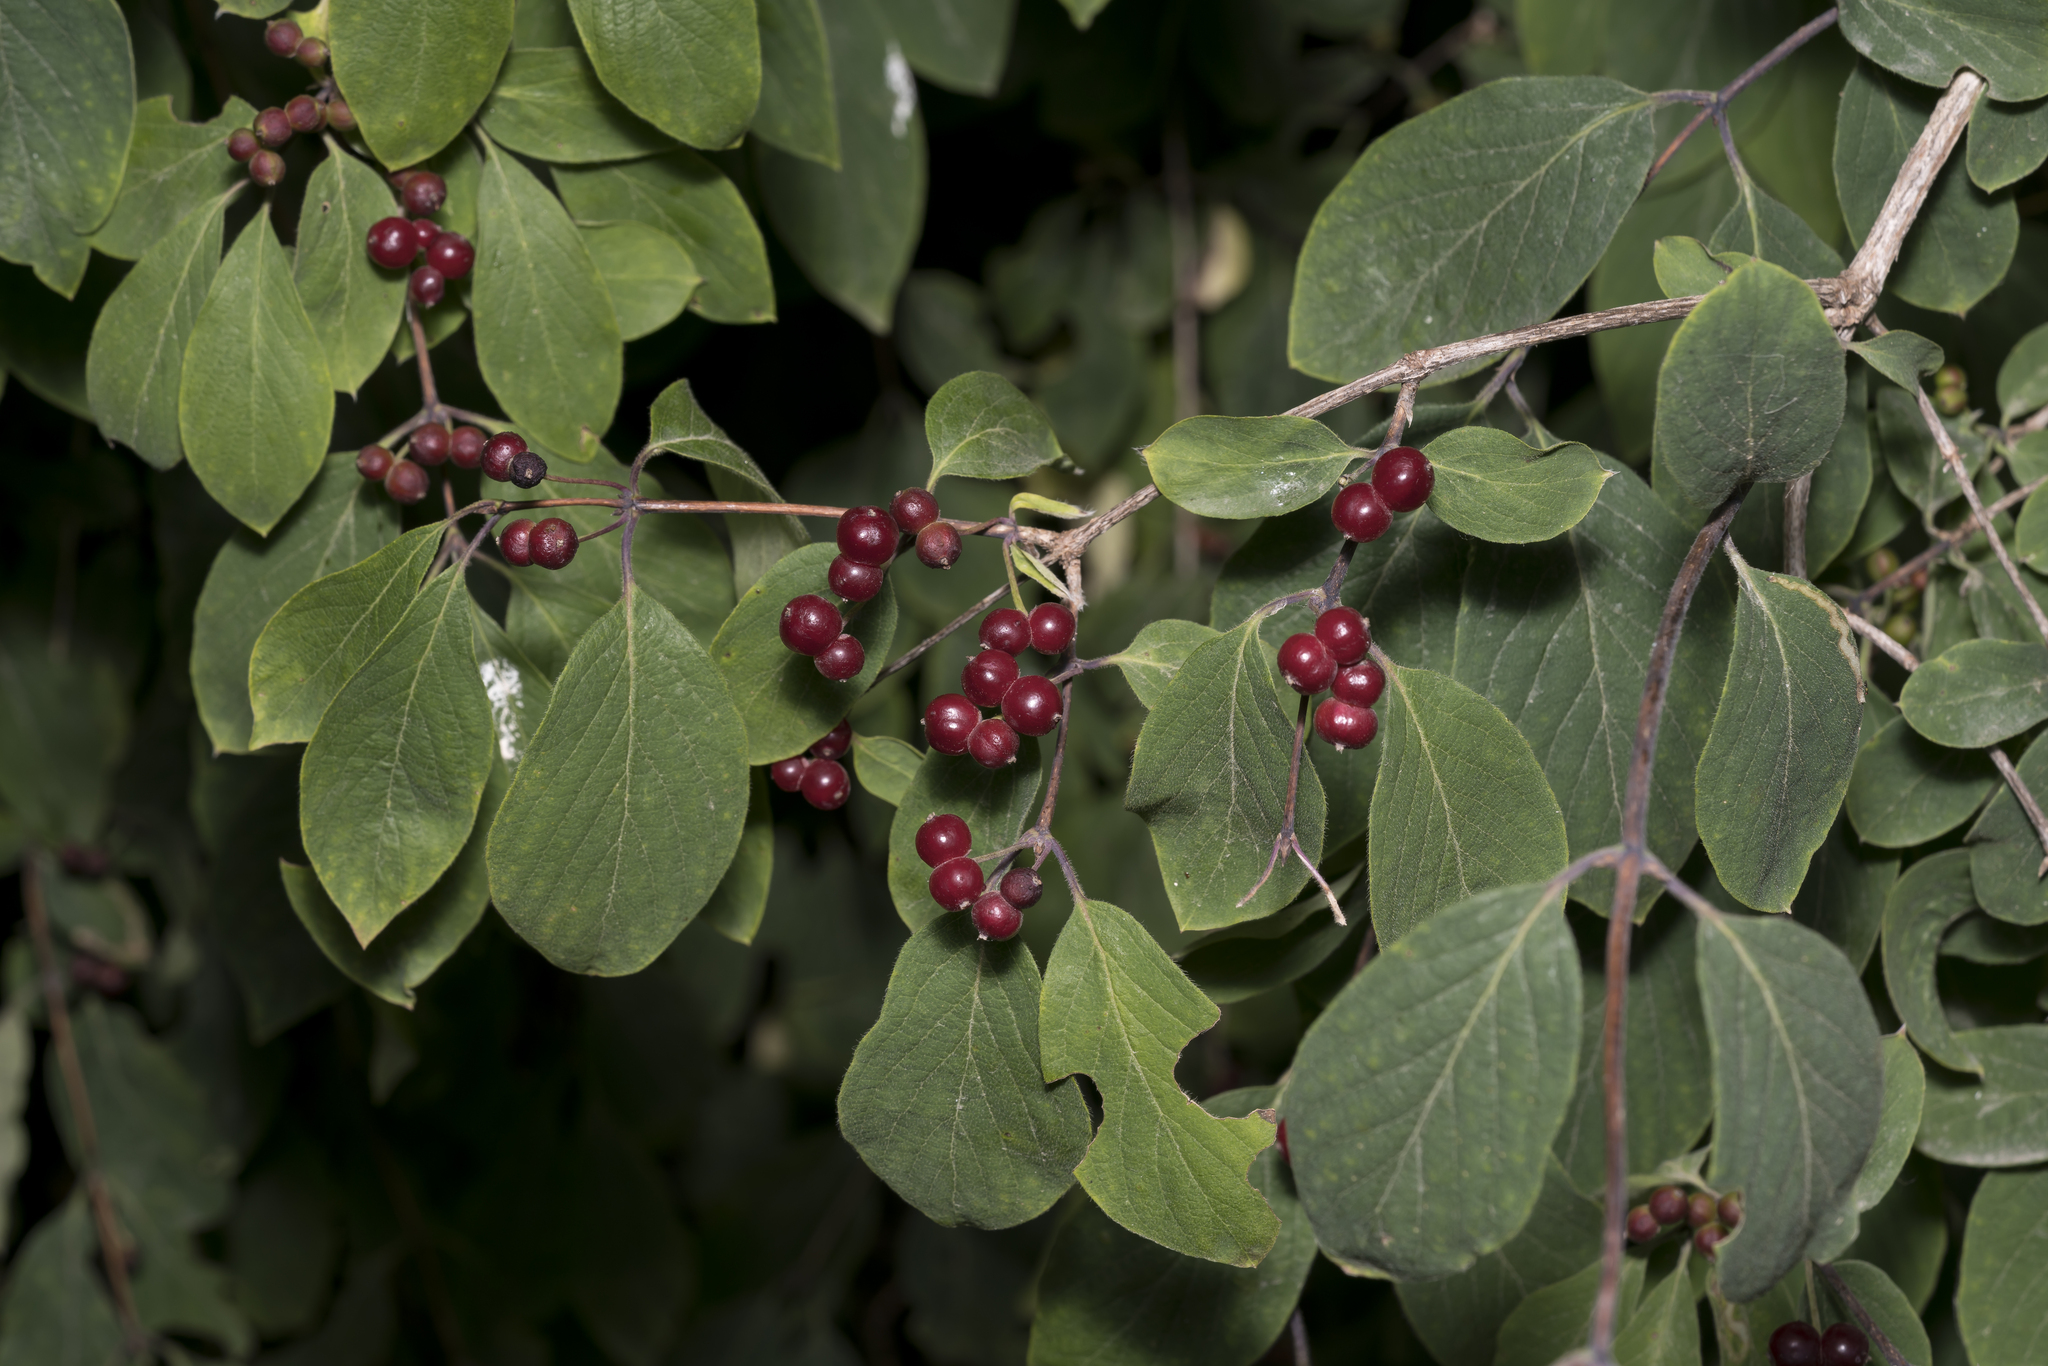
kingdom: Plantae
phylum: Tracheophyta
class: Magnoliopsida
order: Dipsacales
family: Caprifoliaceae
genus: Lonicera
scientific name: Lonicera xylosteum
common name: Fly honeysuckle
